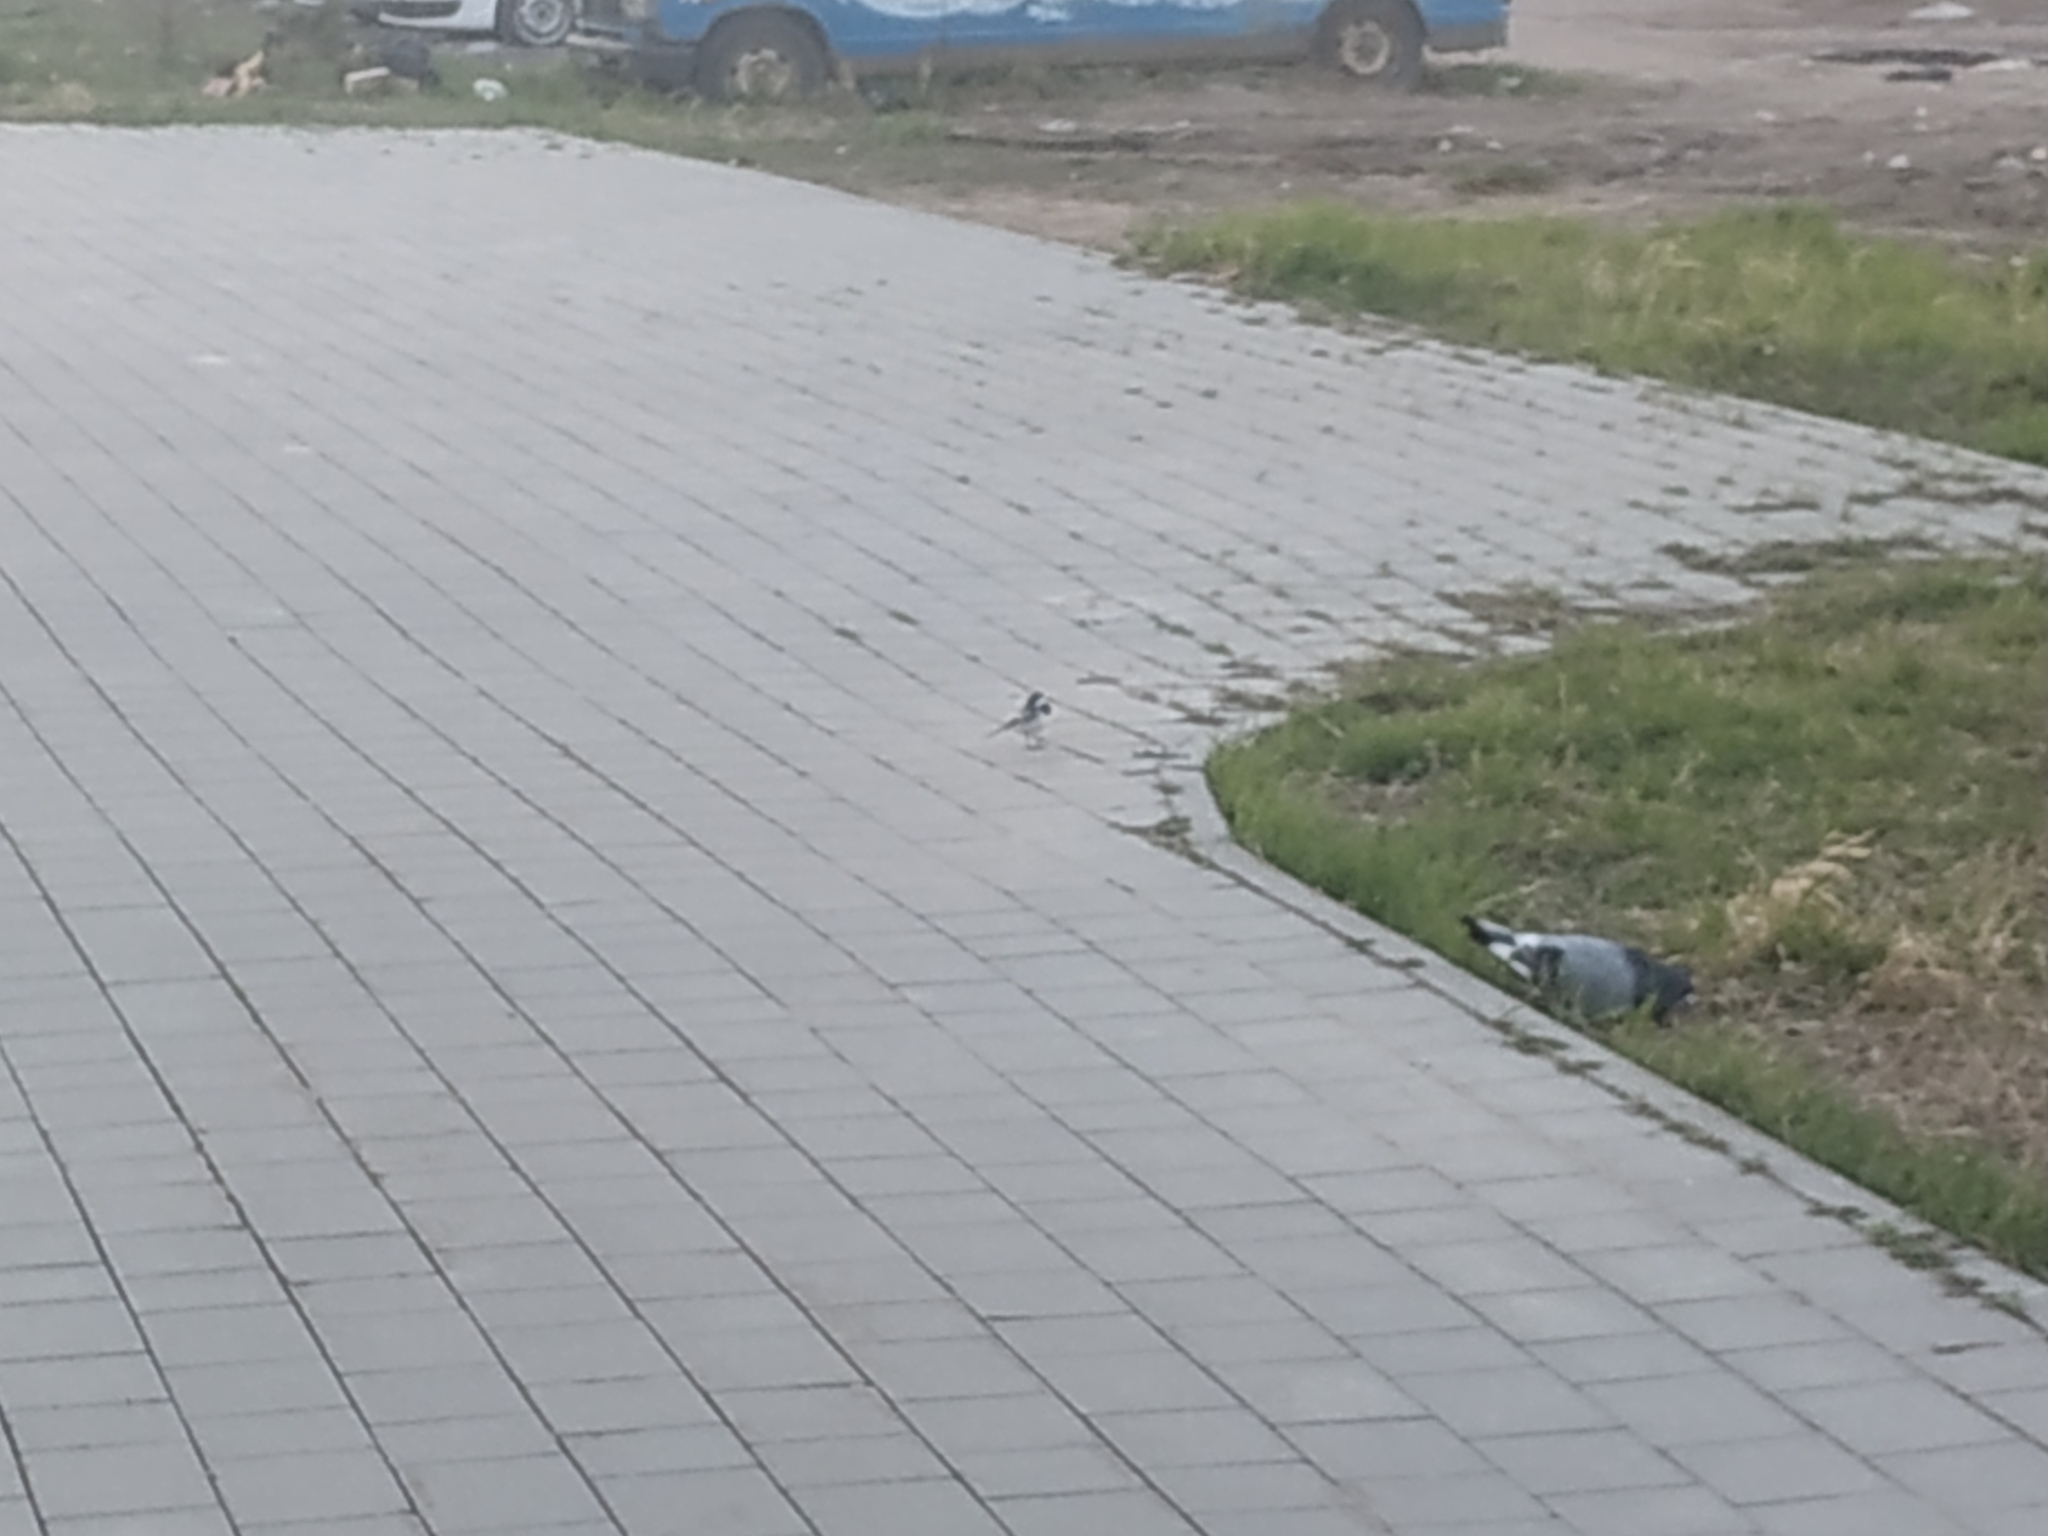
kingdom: Animalia
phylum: Chordata
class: Aves
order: Columbiformes
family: Columbidae
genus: Columba
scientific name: Columba livia
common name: Rock pigeon
